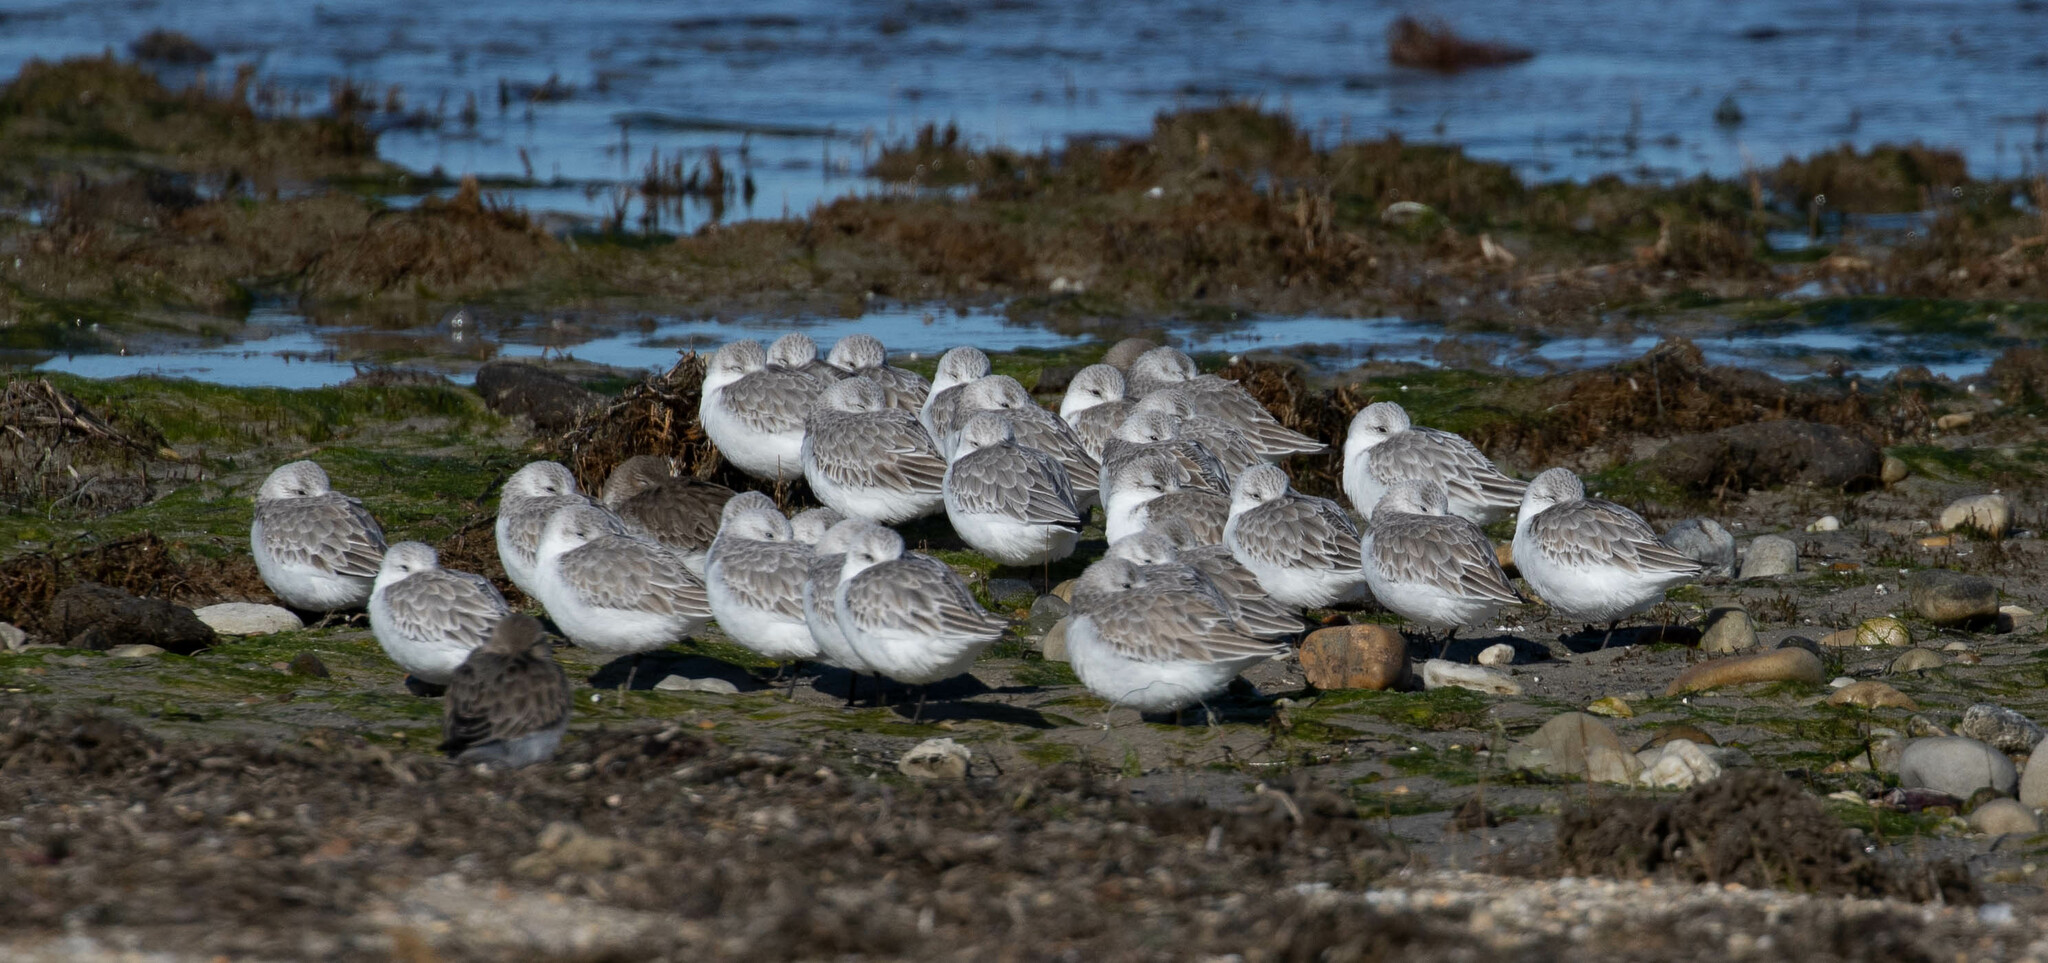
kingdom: Animalia
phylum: Chordata
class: Aves
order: Charadriiformes
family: Scolopacidae
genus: Calidris
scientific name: Calidris alba
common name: Sanderling
